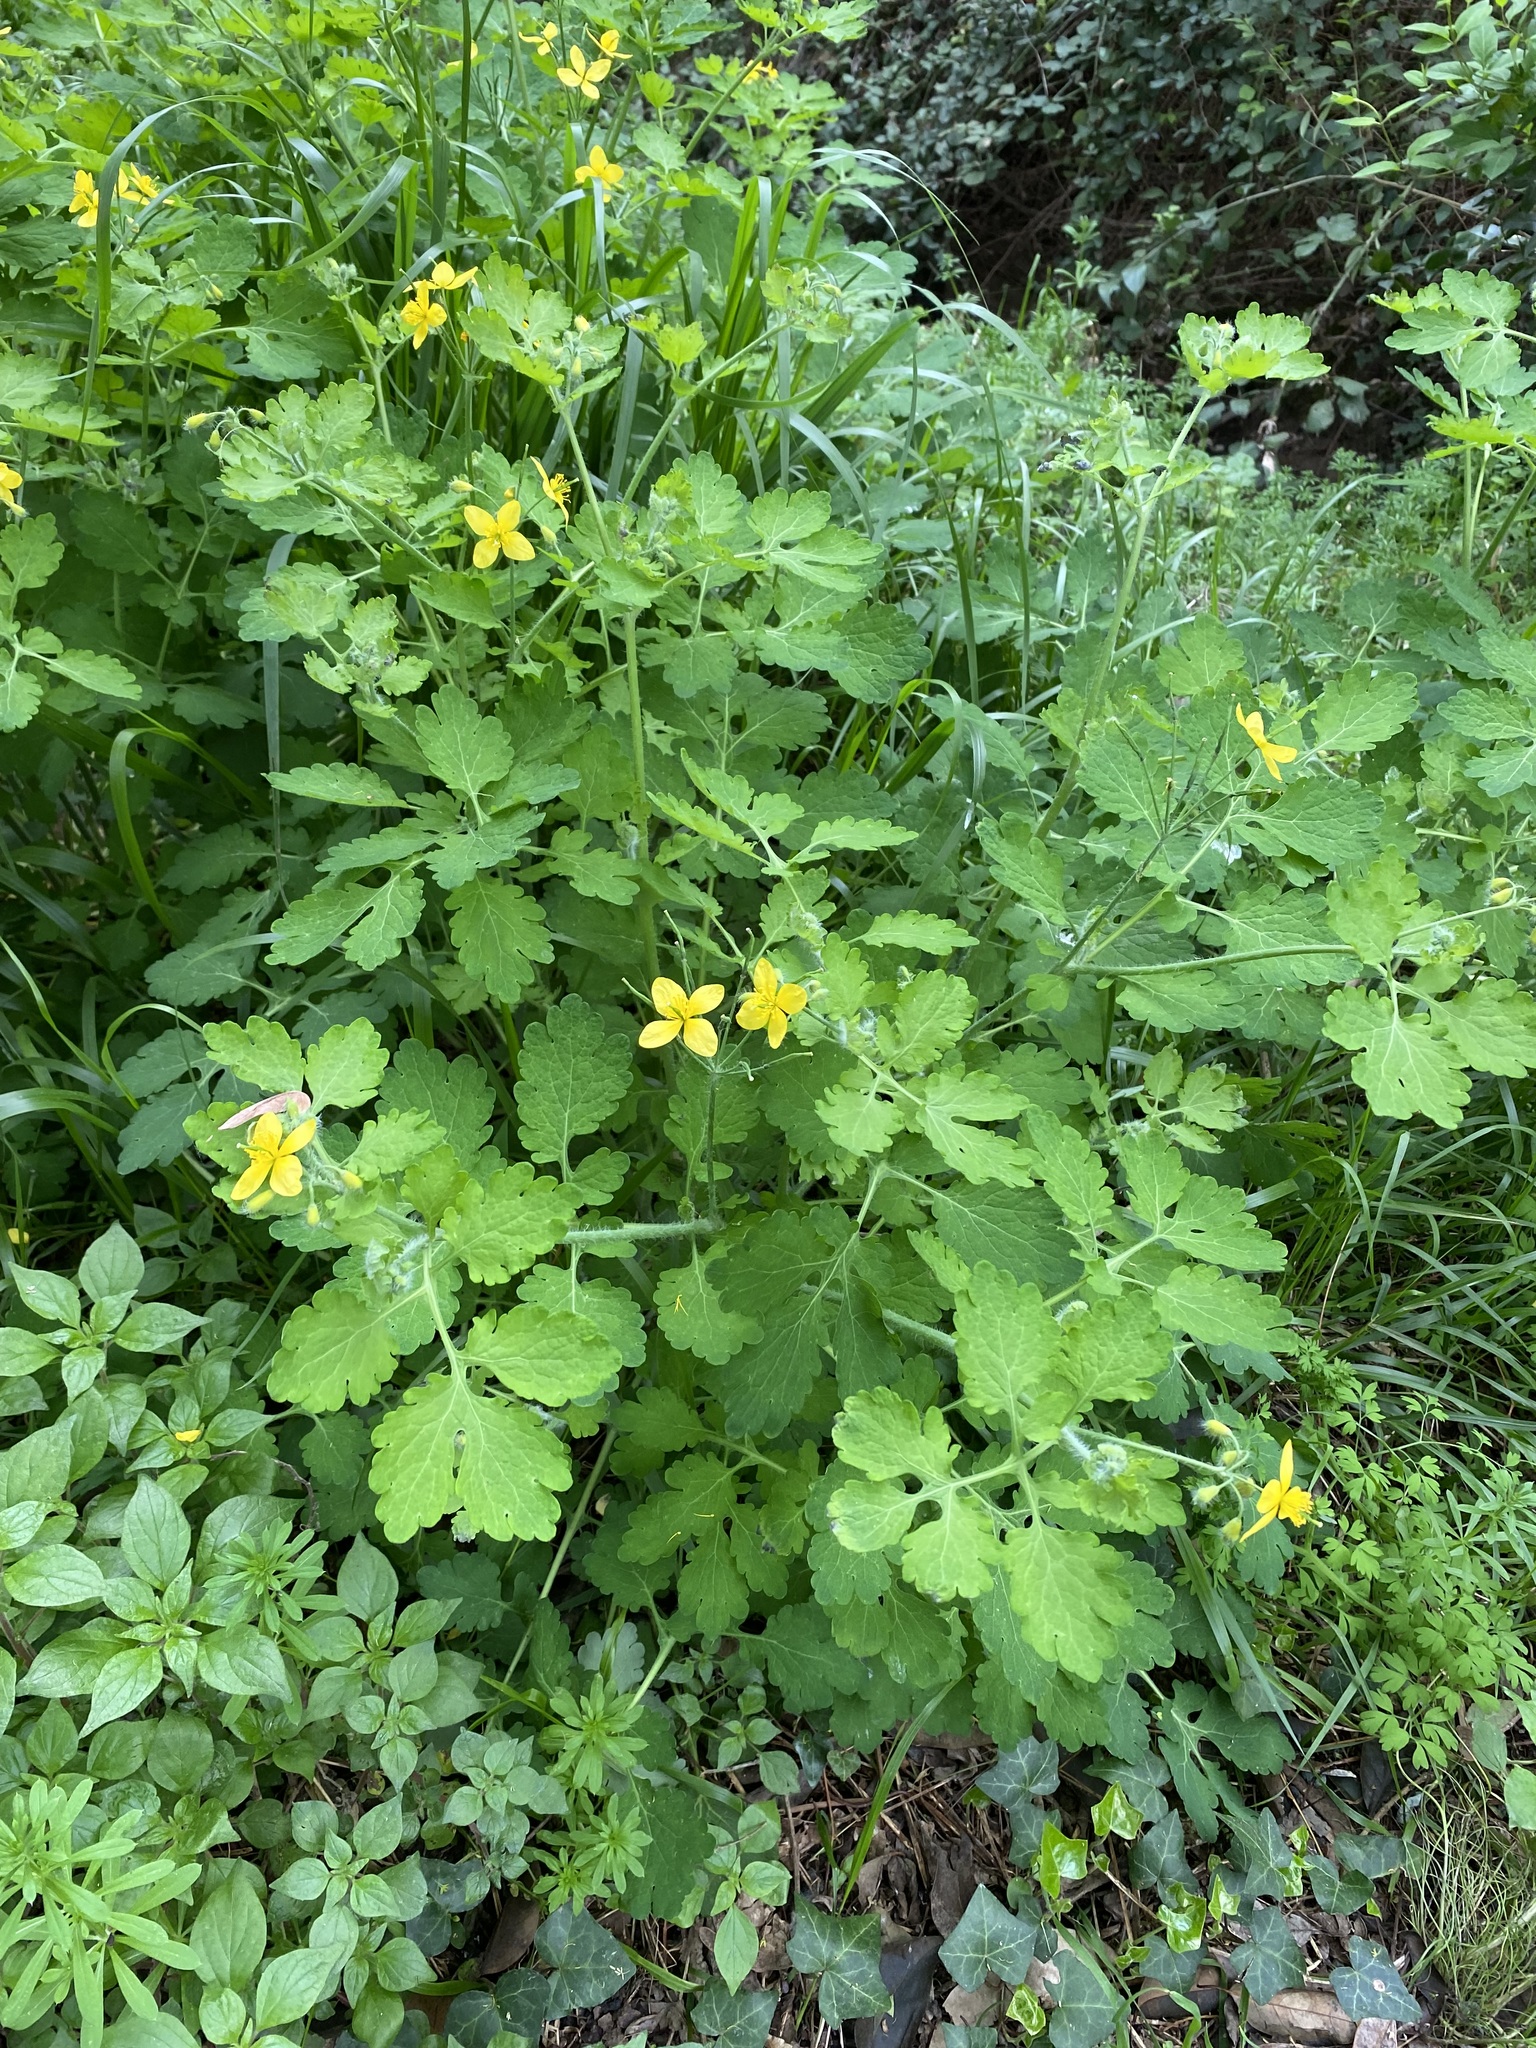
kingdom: Plantae
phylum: Tracheophyta
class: Magnoliopsida
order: Ranunculales
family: Papaveraceae
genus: Chelidonium
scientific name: Chelidonium majus
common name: Greater celandine
